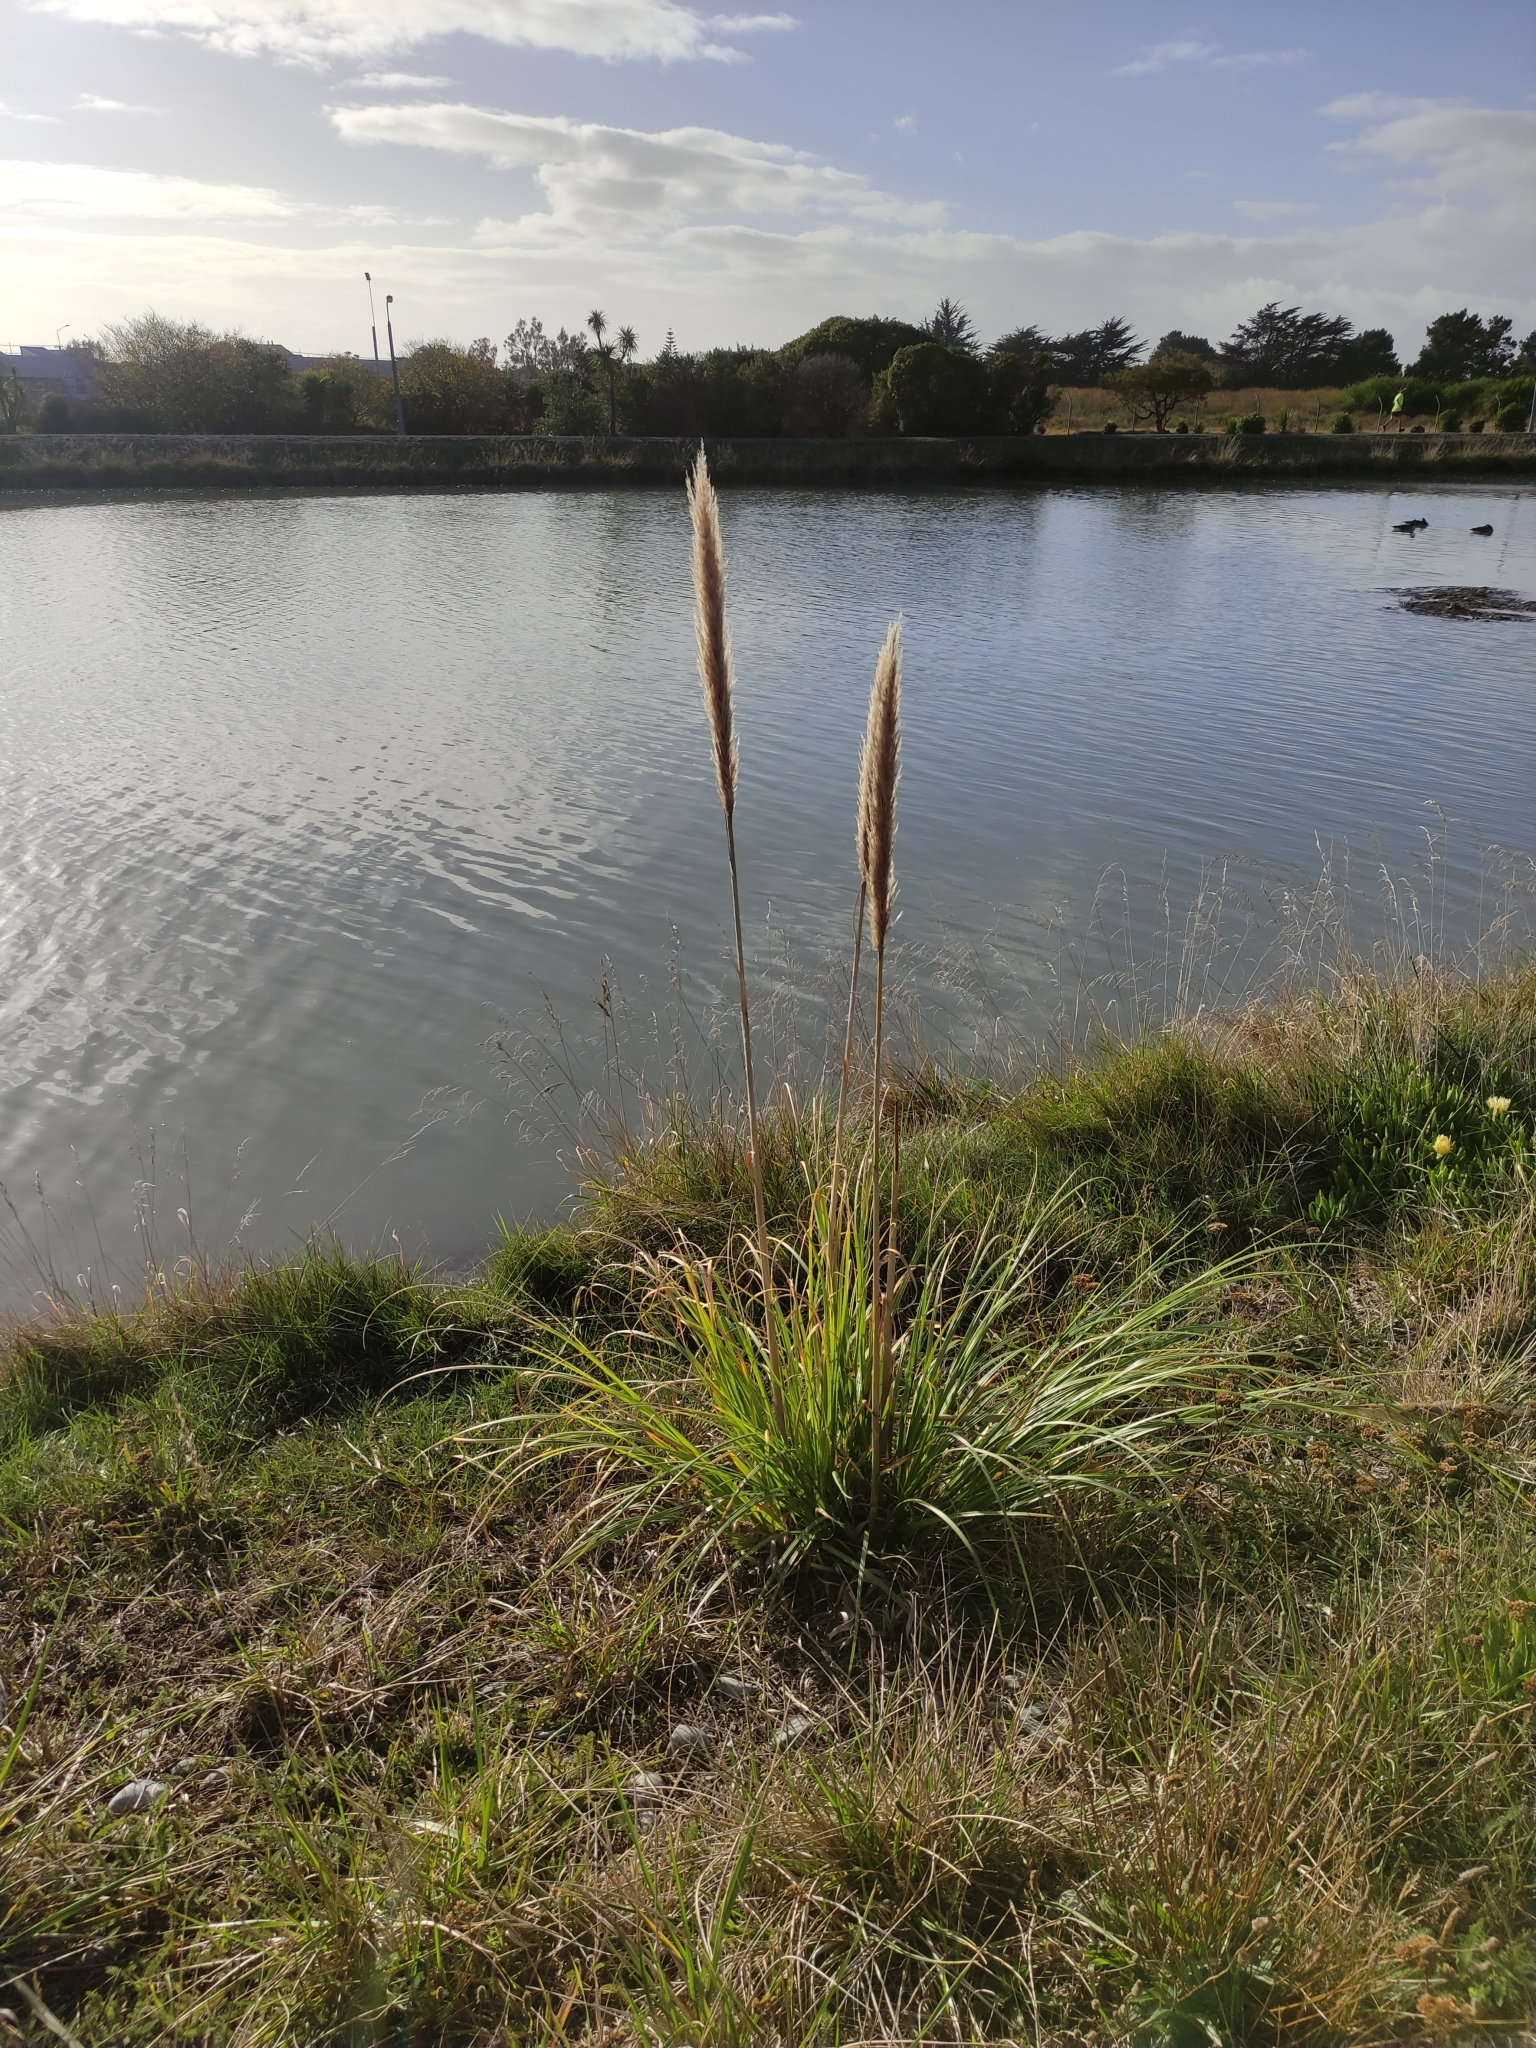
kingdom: Plantae
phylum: Tracheophyta
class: Liliopsida
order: Poales
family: Poaceae
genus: Cortaderia
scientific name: Cortaderia selloana
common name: Uruguayan pampas grass
